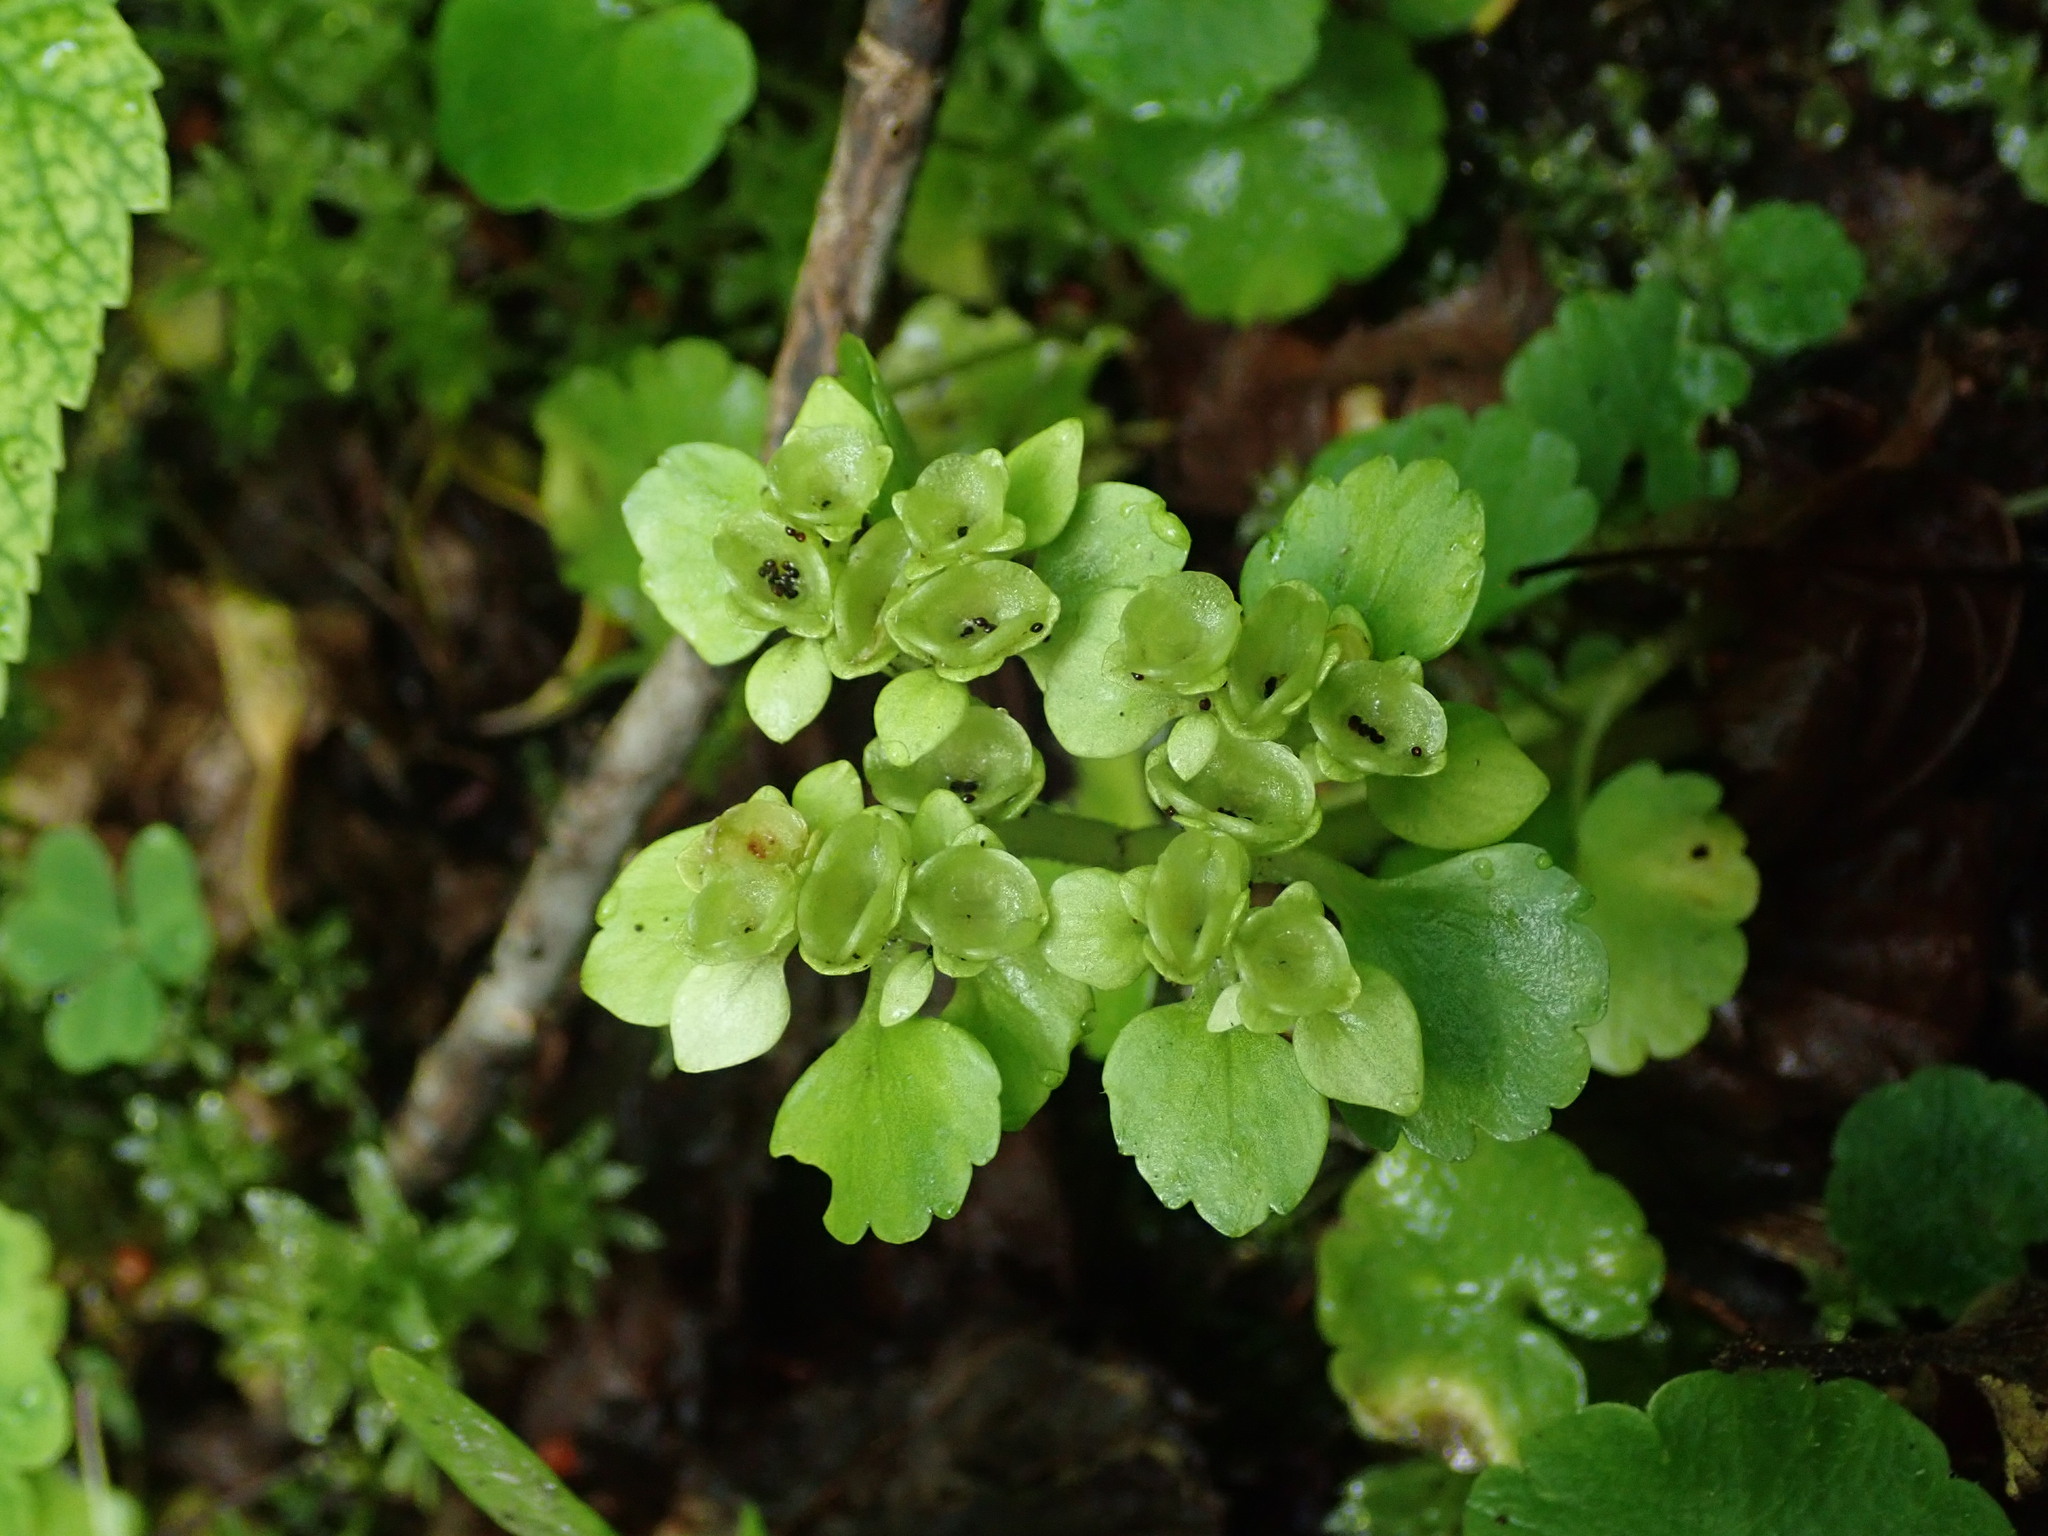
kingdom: Plantae
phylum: Tracheophyta
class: Magnoliopsida
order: Saxifragales
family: Saxifragaceae
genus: Chrysosplenium
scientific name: Chrysosplenium alternifolium
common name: Alternate-leaved golden-saxifrage
